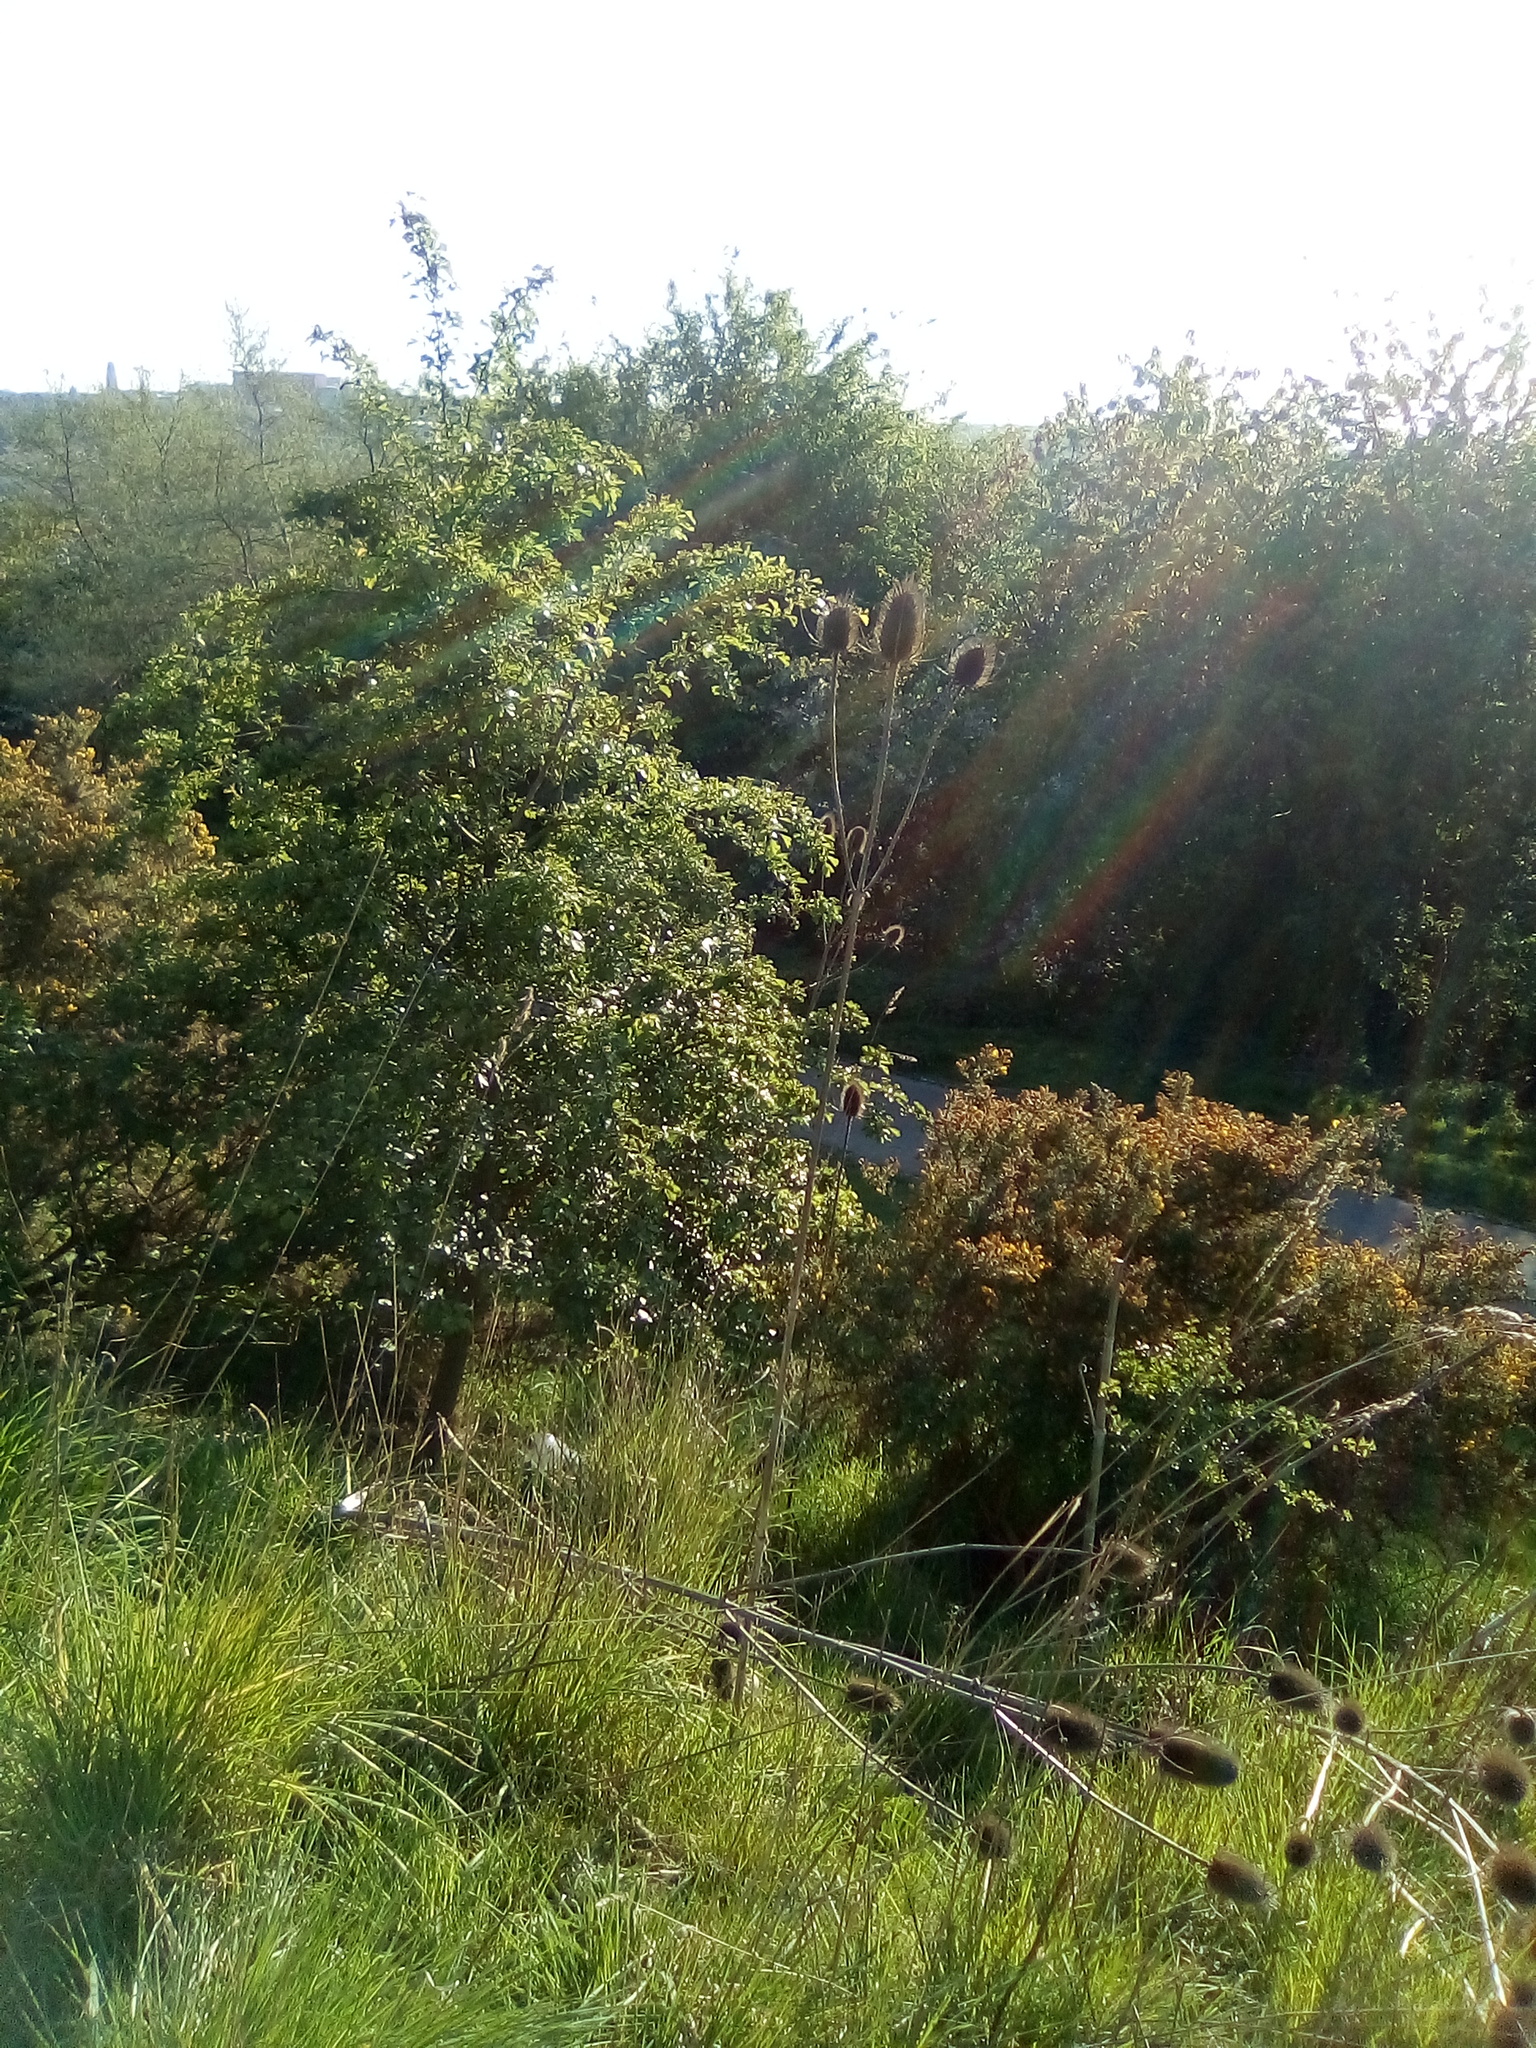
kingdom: Plantae
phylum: Tracheophyta
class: Magnoliopsida
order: Dipsacales
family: Caprifoliaceae
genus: Dipsacus
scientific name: Dipsacus fullonum
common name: Teasel
